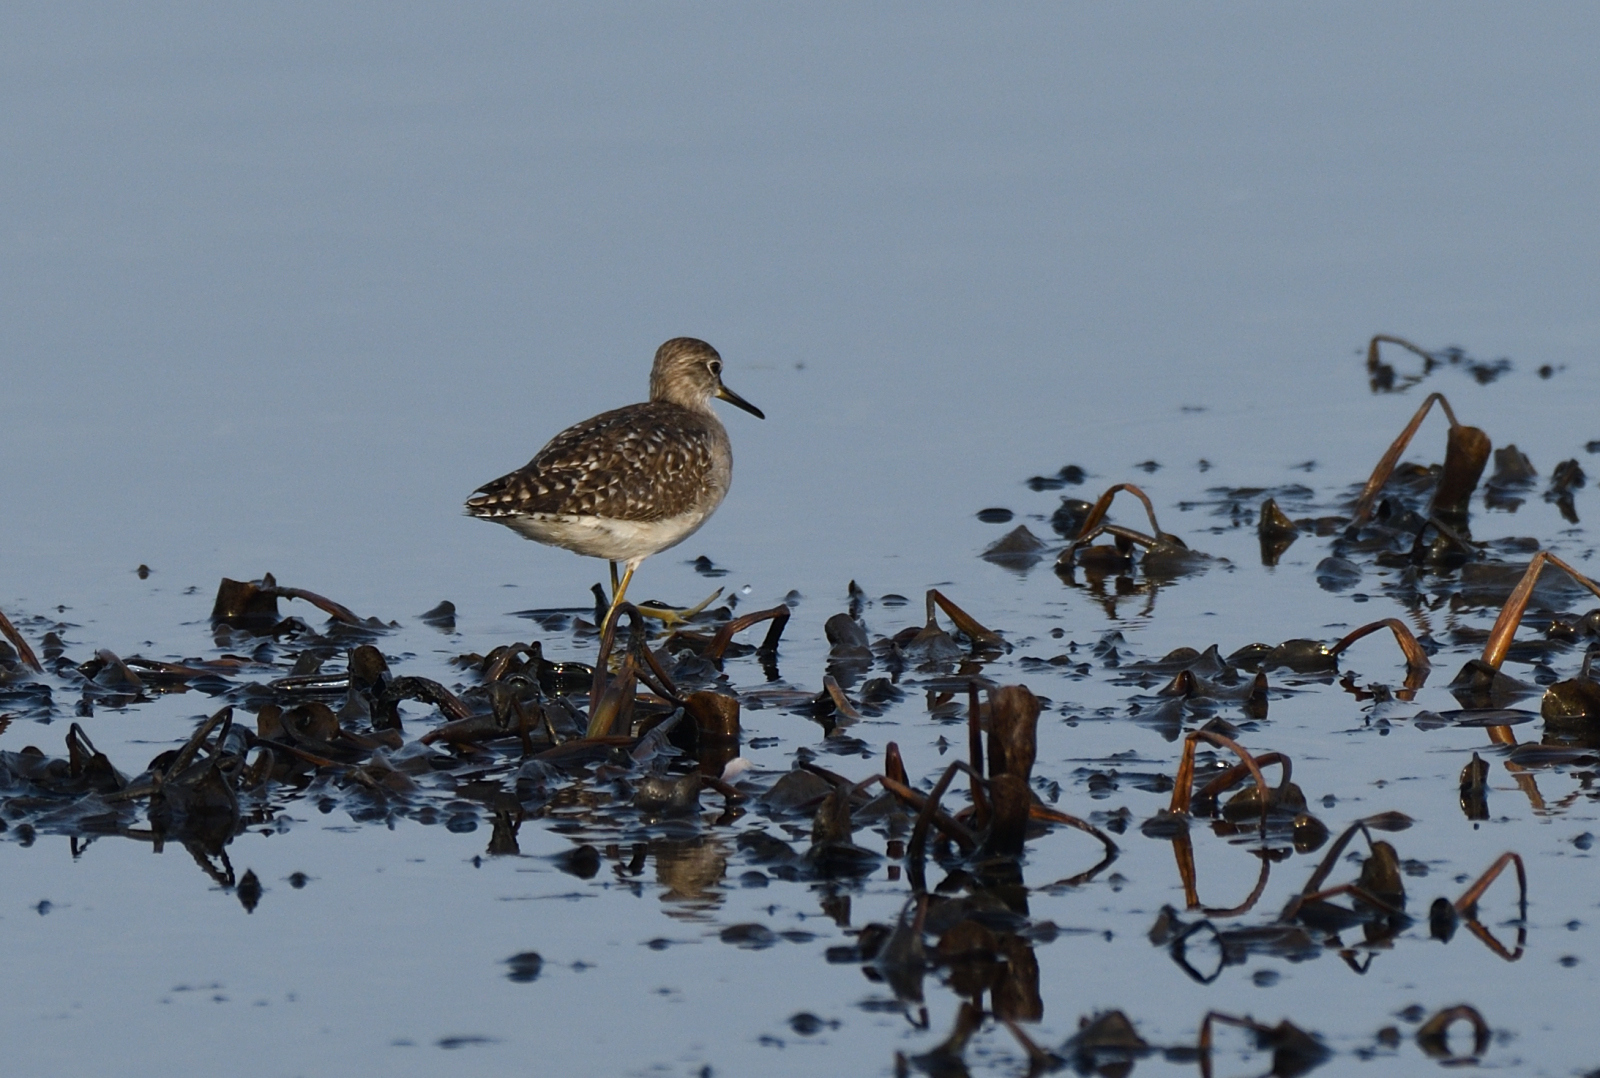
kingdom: Animalia
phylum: Chordata
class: Aves
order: Charadriiformes
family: Scolopacidae
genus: Tringa
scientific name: Tringa glareola
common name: Wood sandpiper
